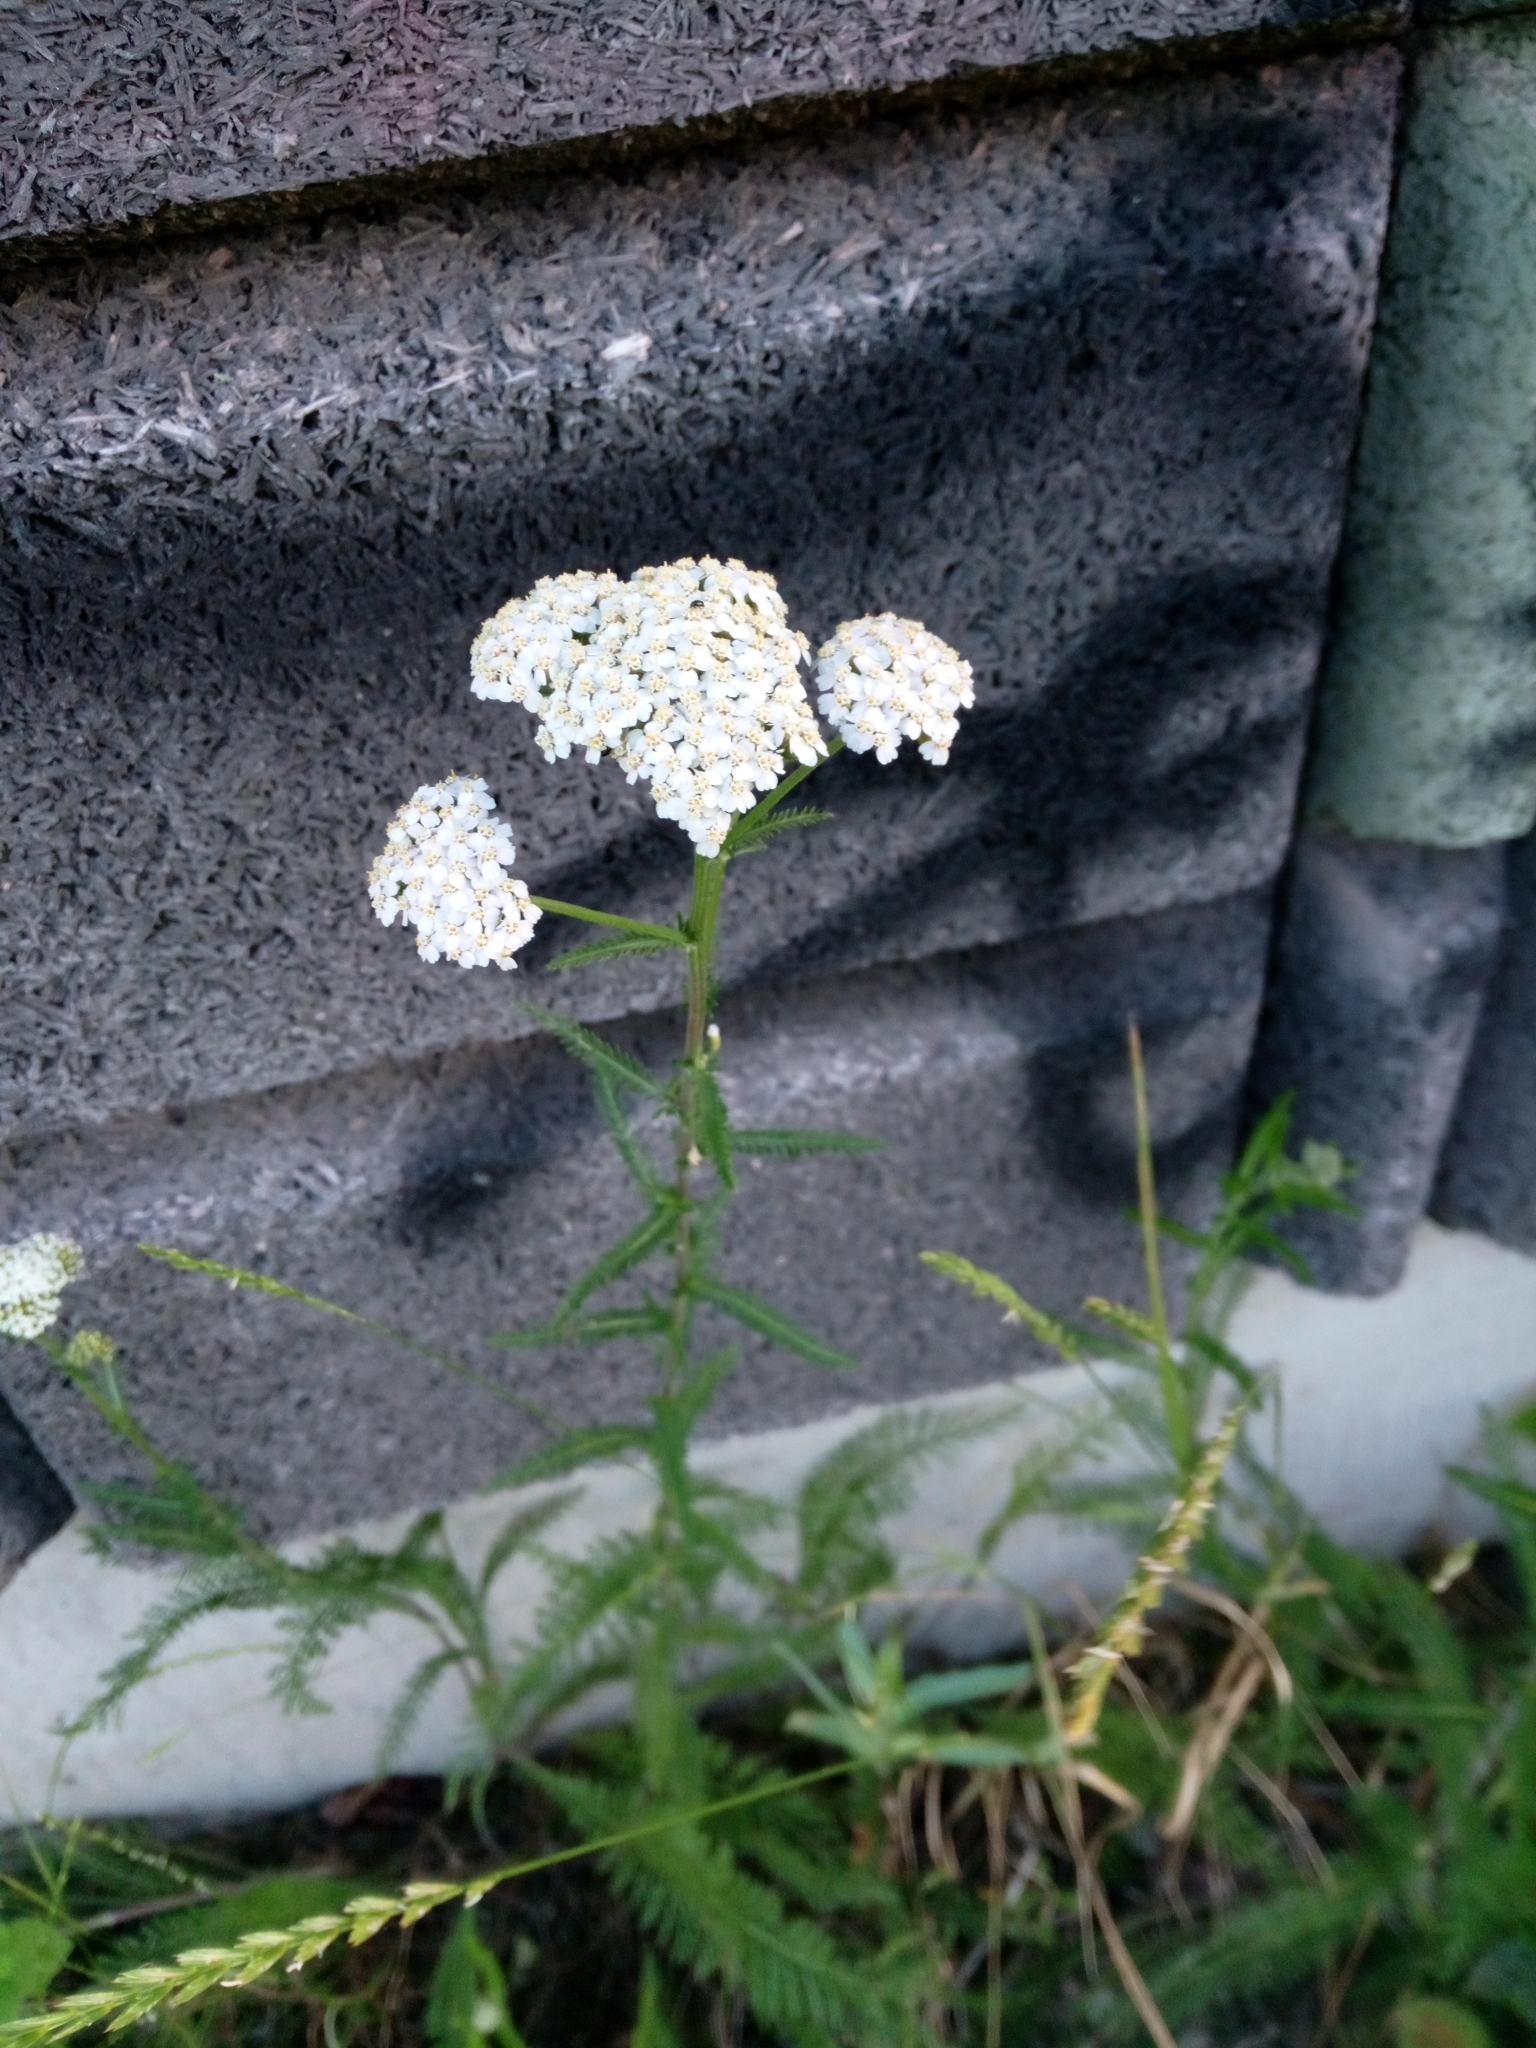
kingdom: Plantae
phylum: Tracheophyta
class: Magnoliopsida
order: Asterales
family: Asteraceae
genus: Achillea
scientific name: Achillea millefolium
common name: Yarrow
